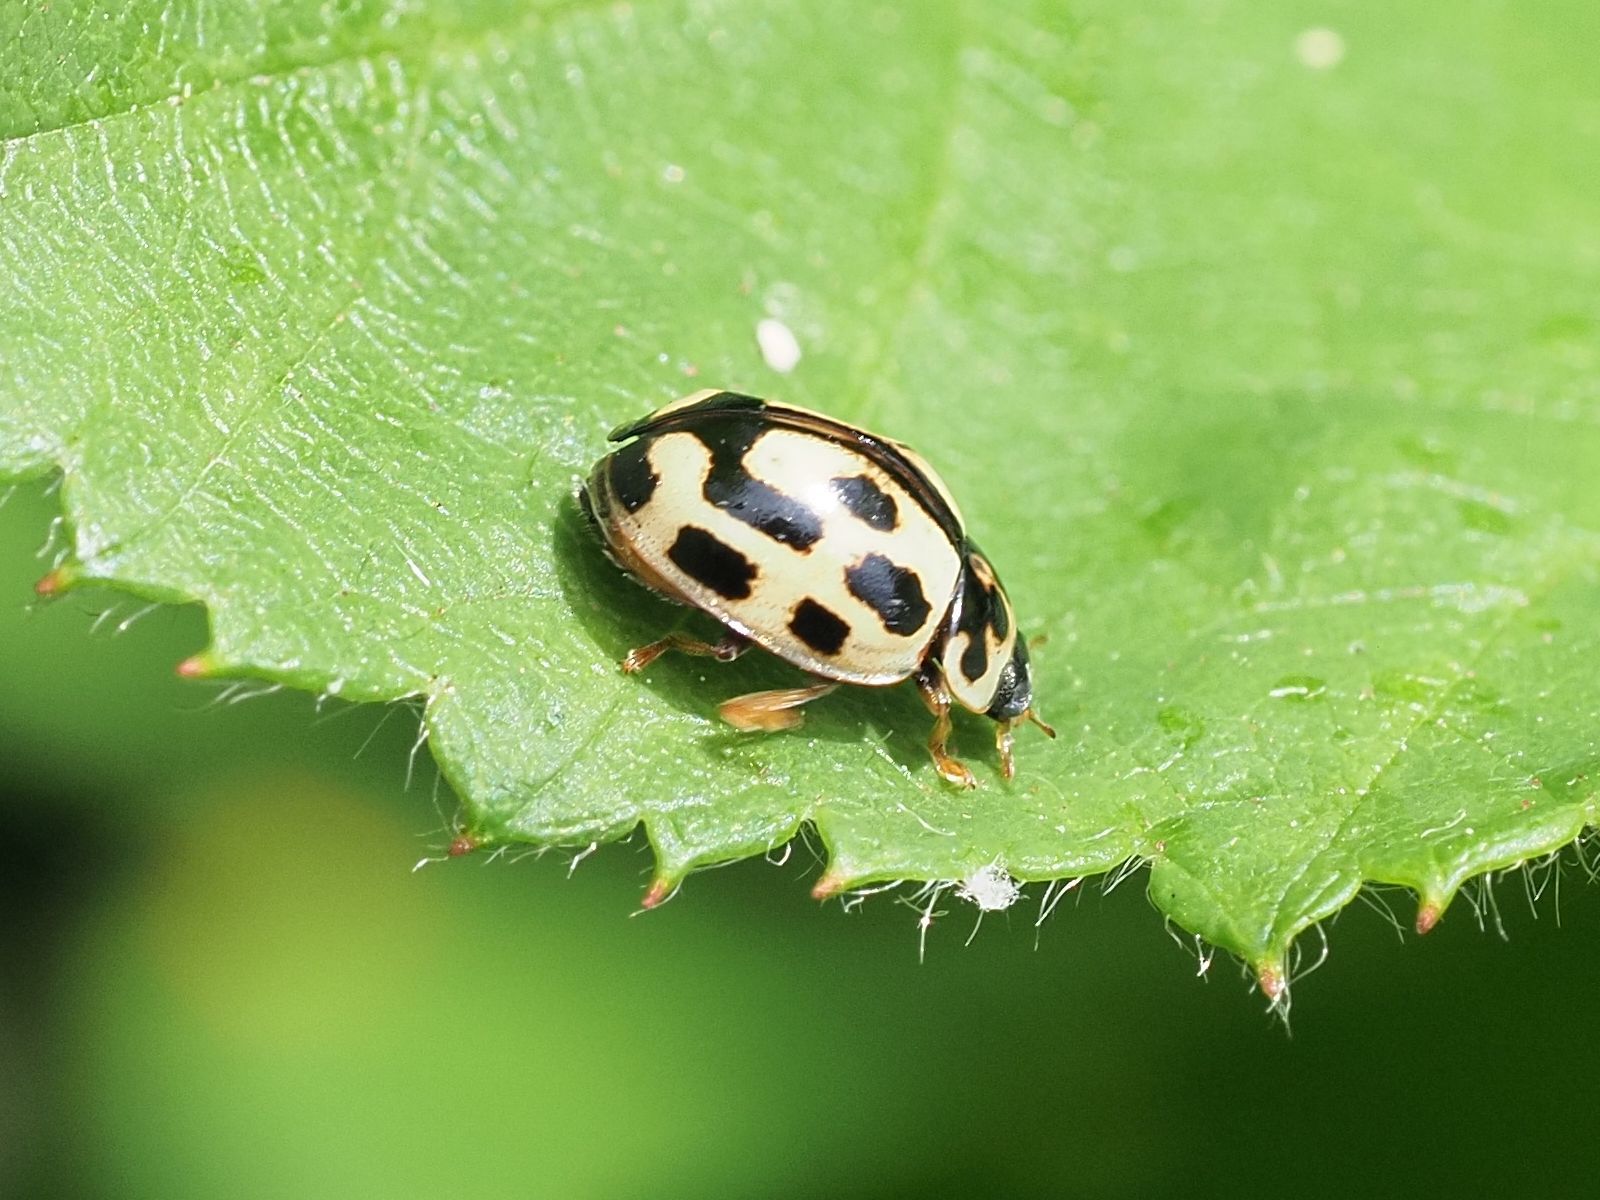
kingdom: Animalia
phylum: Arthropoda
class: Insecta
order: Coleoptera
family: Coccinellidae
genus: Propylaea
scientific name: Propylaea quatuordecimpunctata
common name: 14-spotted ladybird beetle
